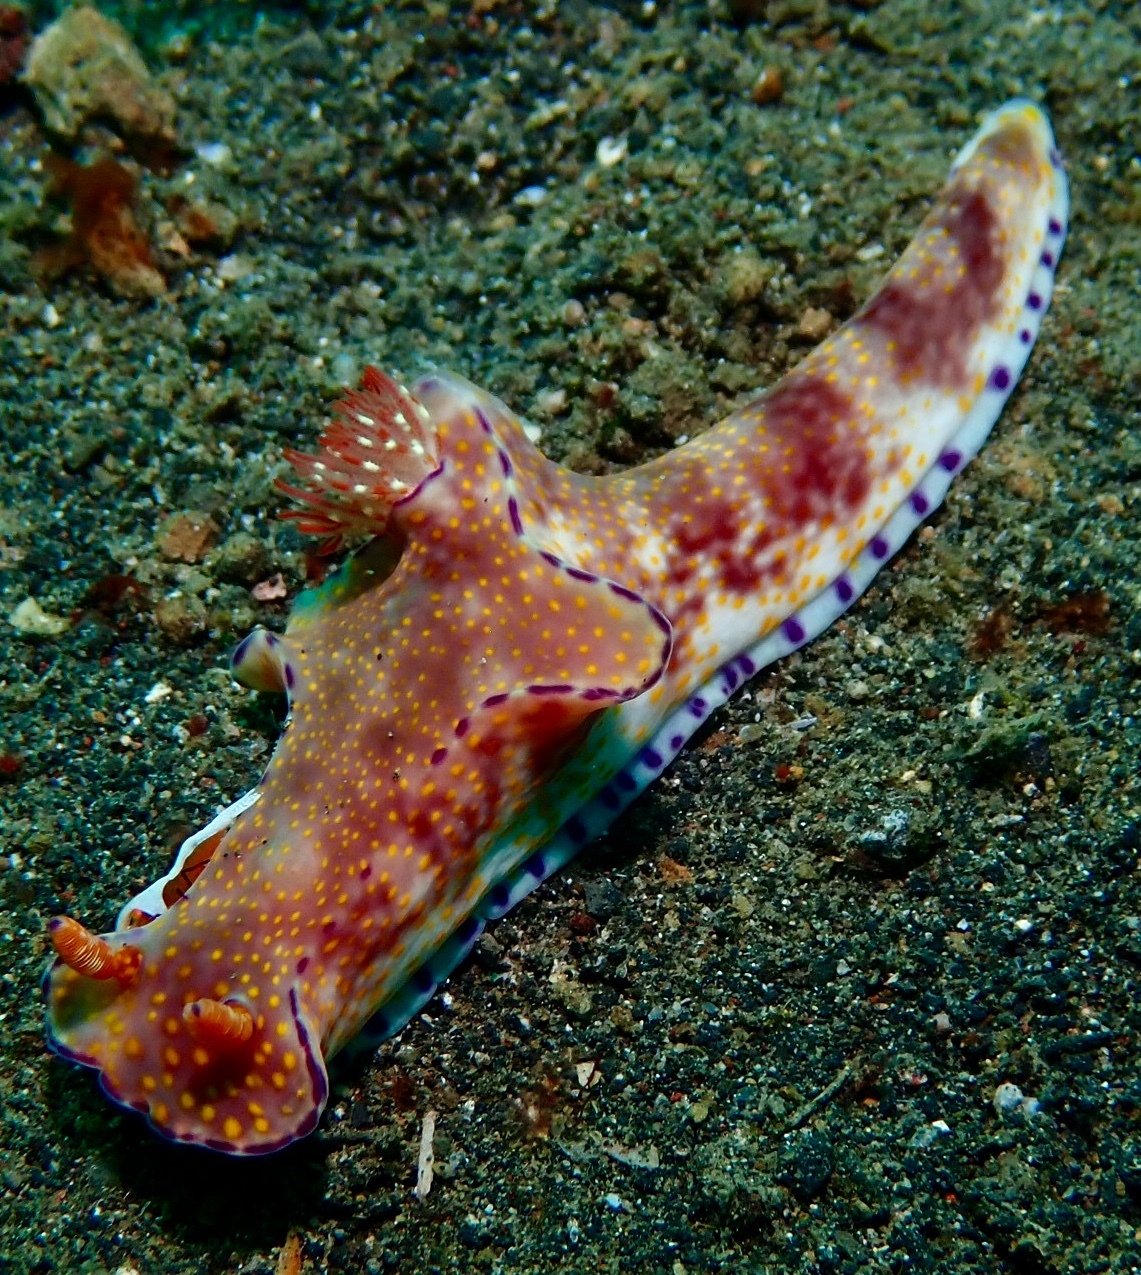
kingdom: Animalia
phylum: Mollusca
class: Gastropoda
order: Nudibranchia
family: Chromodorididae
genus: Ceratosoma
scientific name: Ceratosoma gracillimum
